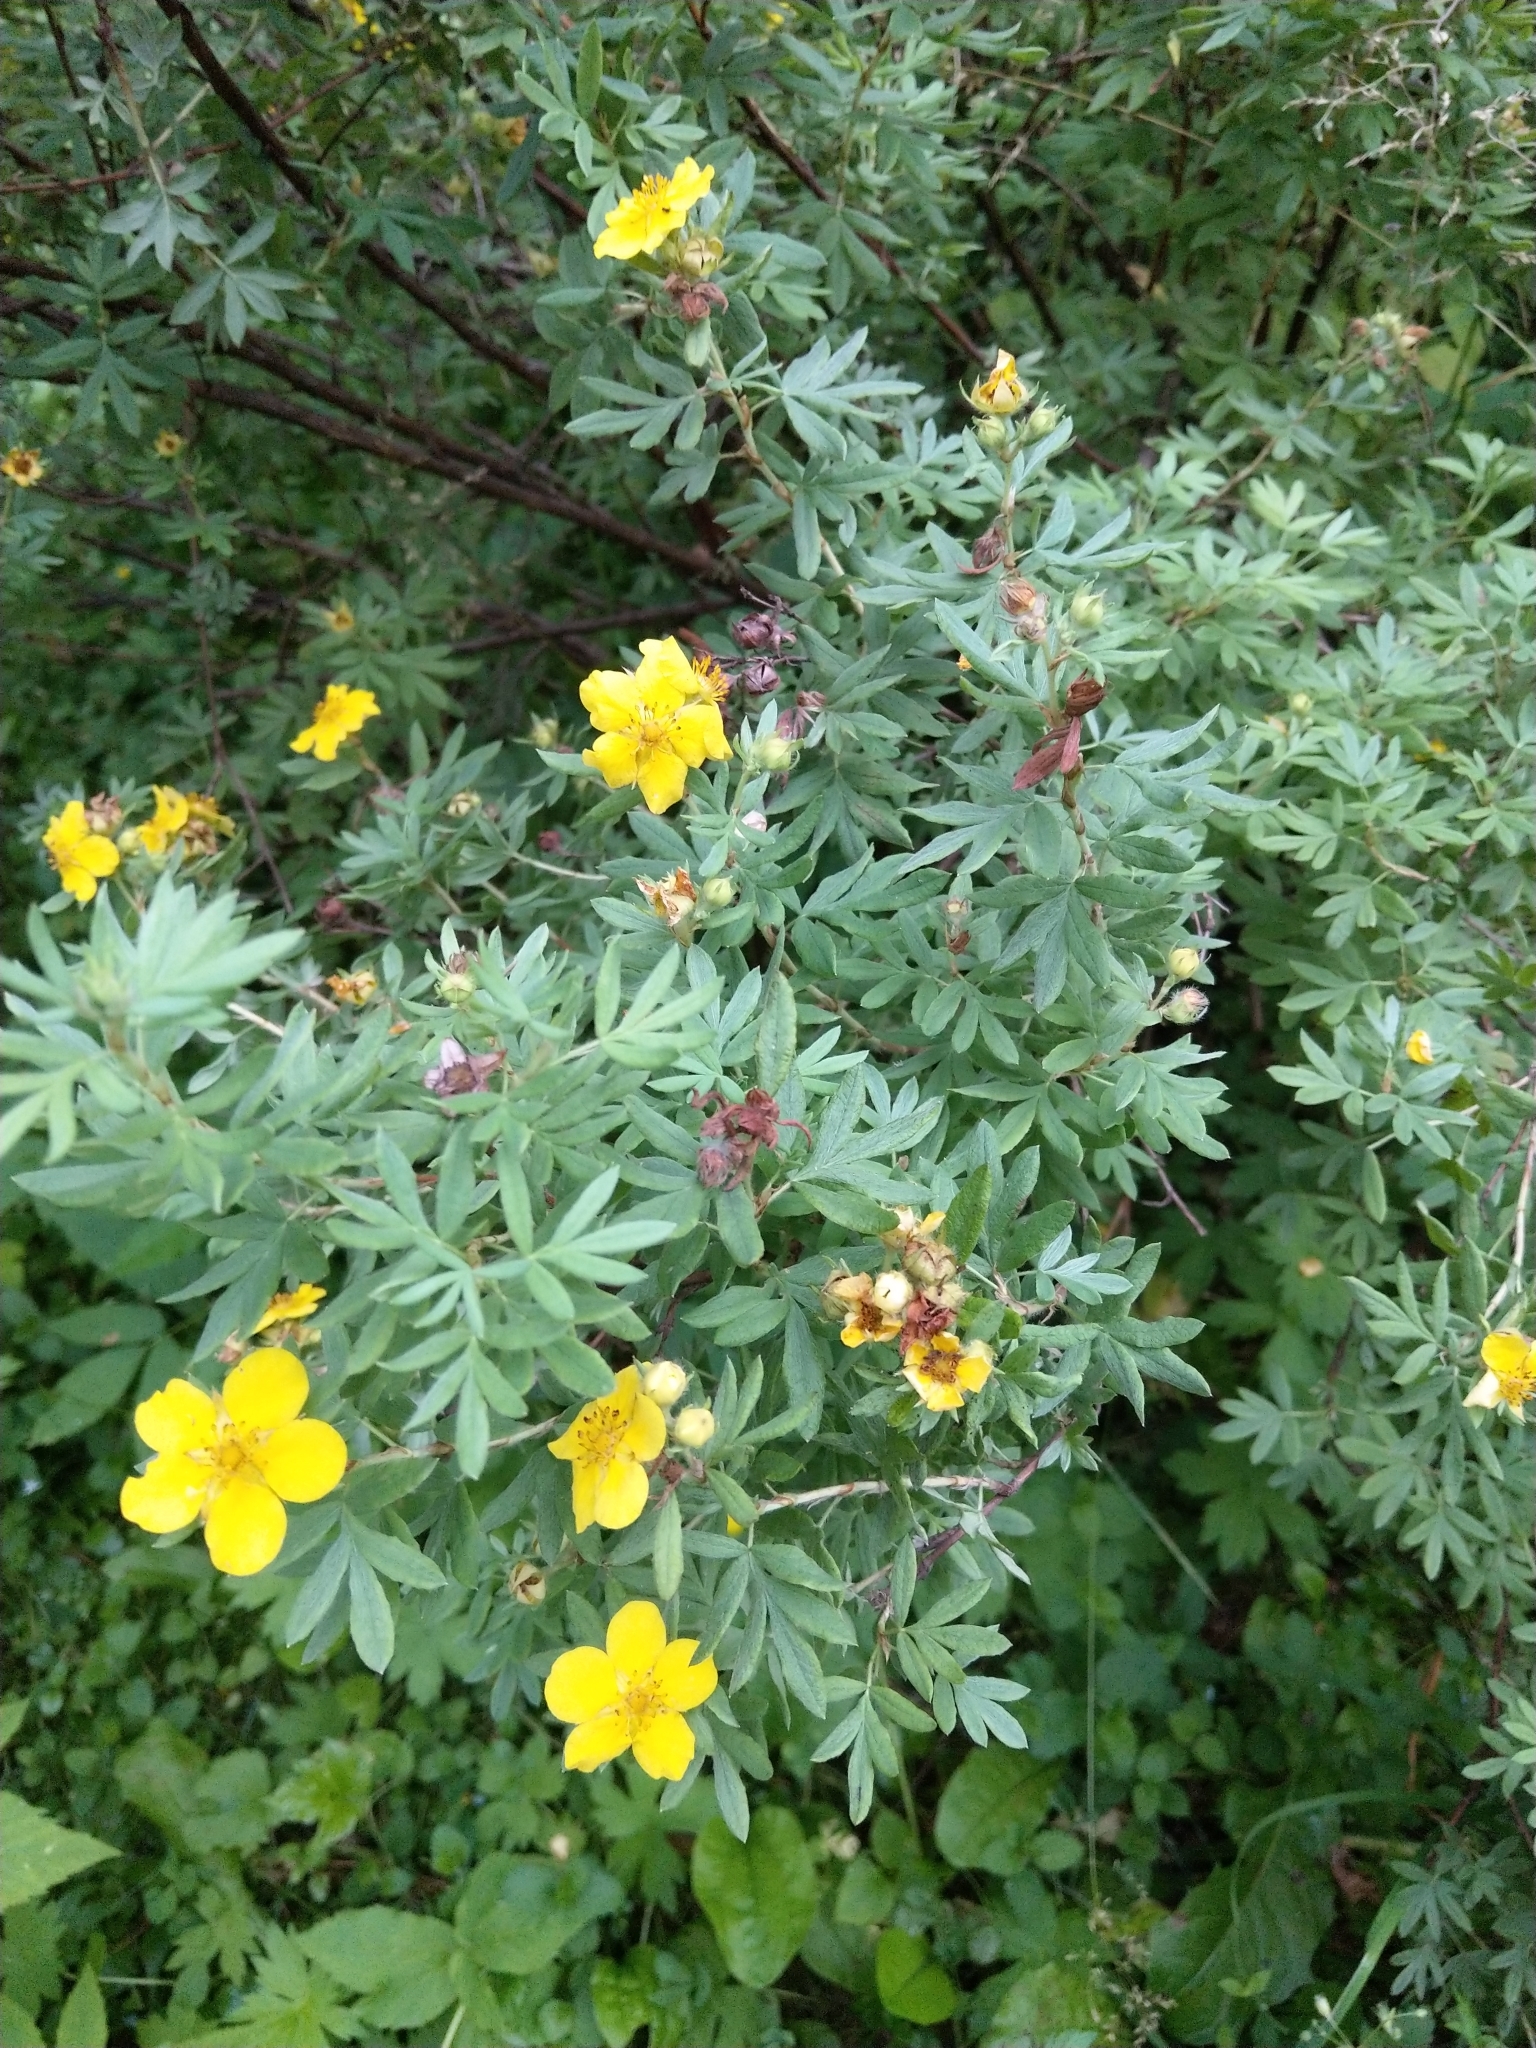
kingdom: Plantae
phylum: Tracheophyta
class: Magnoliopsida
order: Rosales
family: Rosaceae
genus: Dasiphora
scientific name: Dasiphora fruticosa
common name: Shrubby cinquefoil
